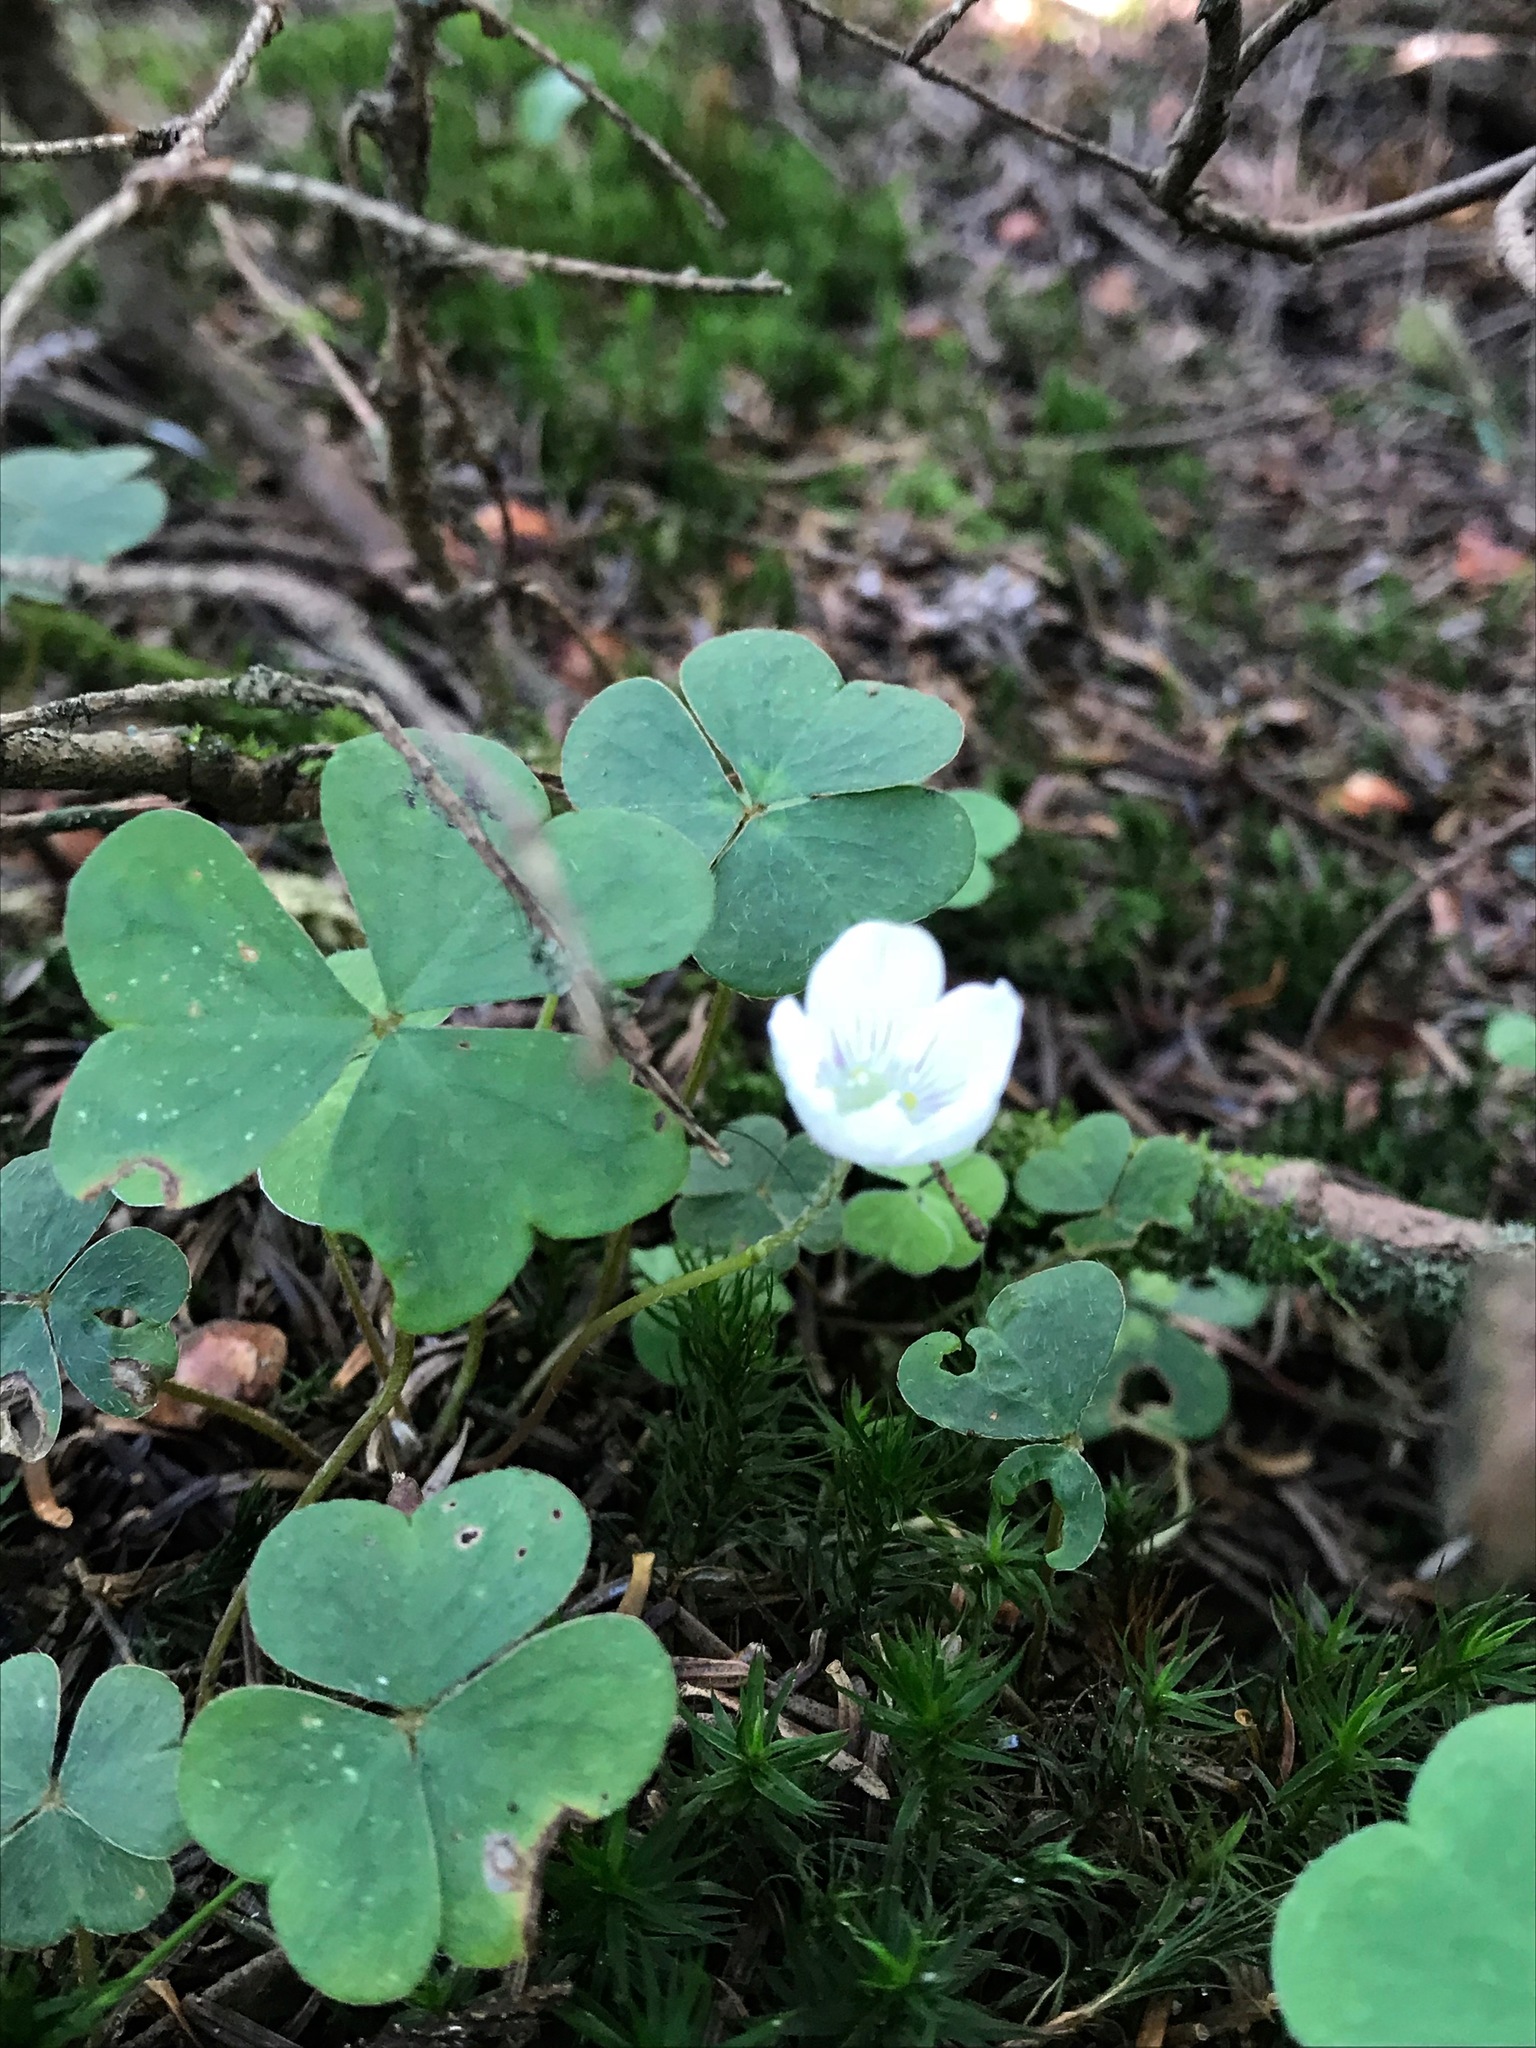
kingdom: Plantae
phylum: Tracheophyta
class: Magnoliopsida
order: Oxalidales
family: Oxalidaceae
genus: Oxalis
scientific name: Oxalis montana
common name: American wood-sorrel
